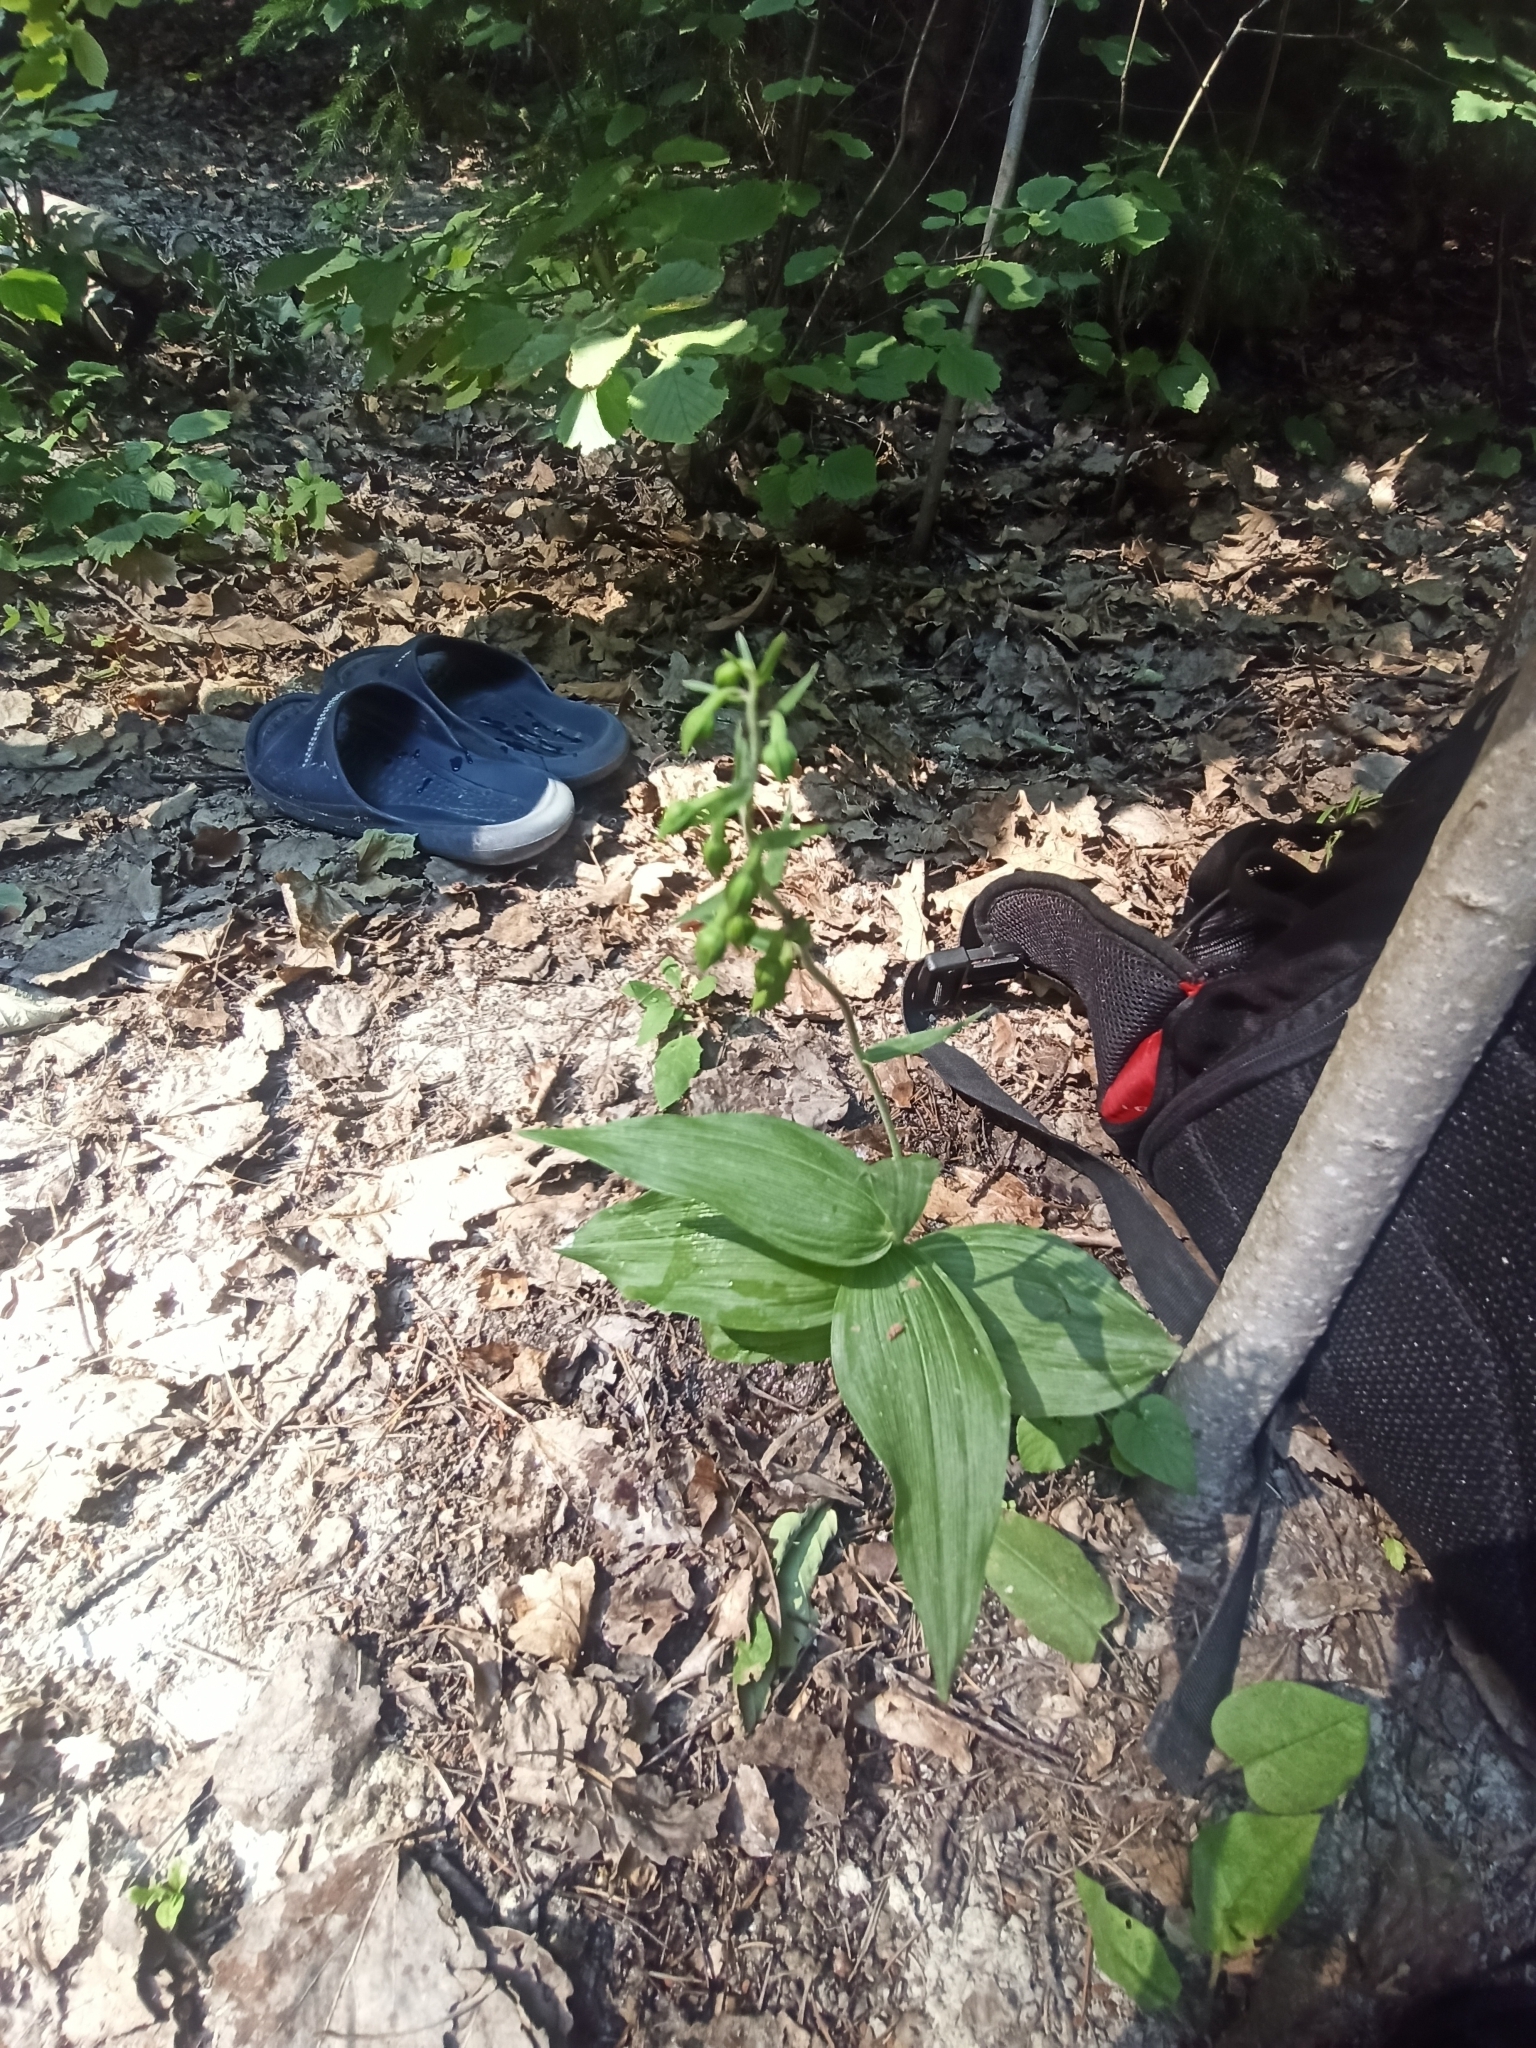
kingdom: Plantae
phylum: Tracheophyta
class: Liliopsida
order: Asparagales
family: Orchidaceae
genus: Epipactis
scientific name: Epipactis helleborine
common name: Broad-leaved helleborine
